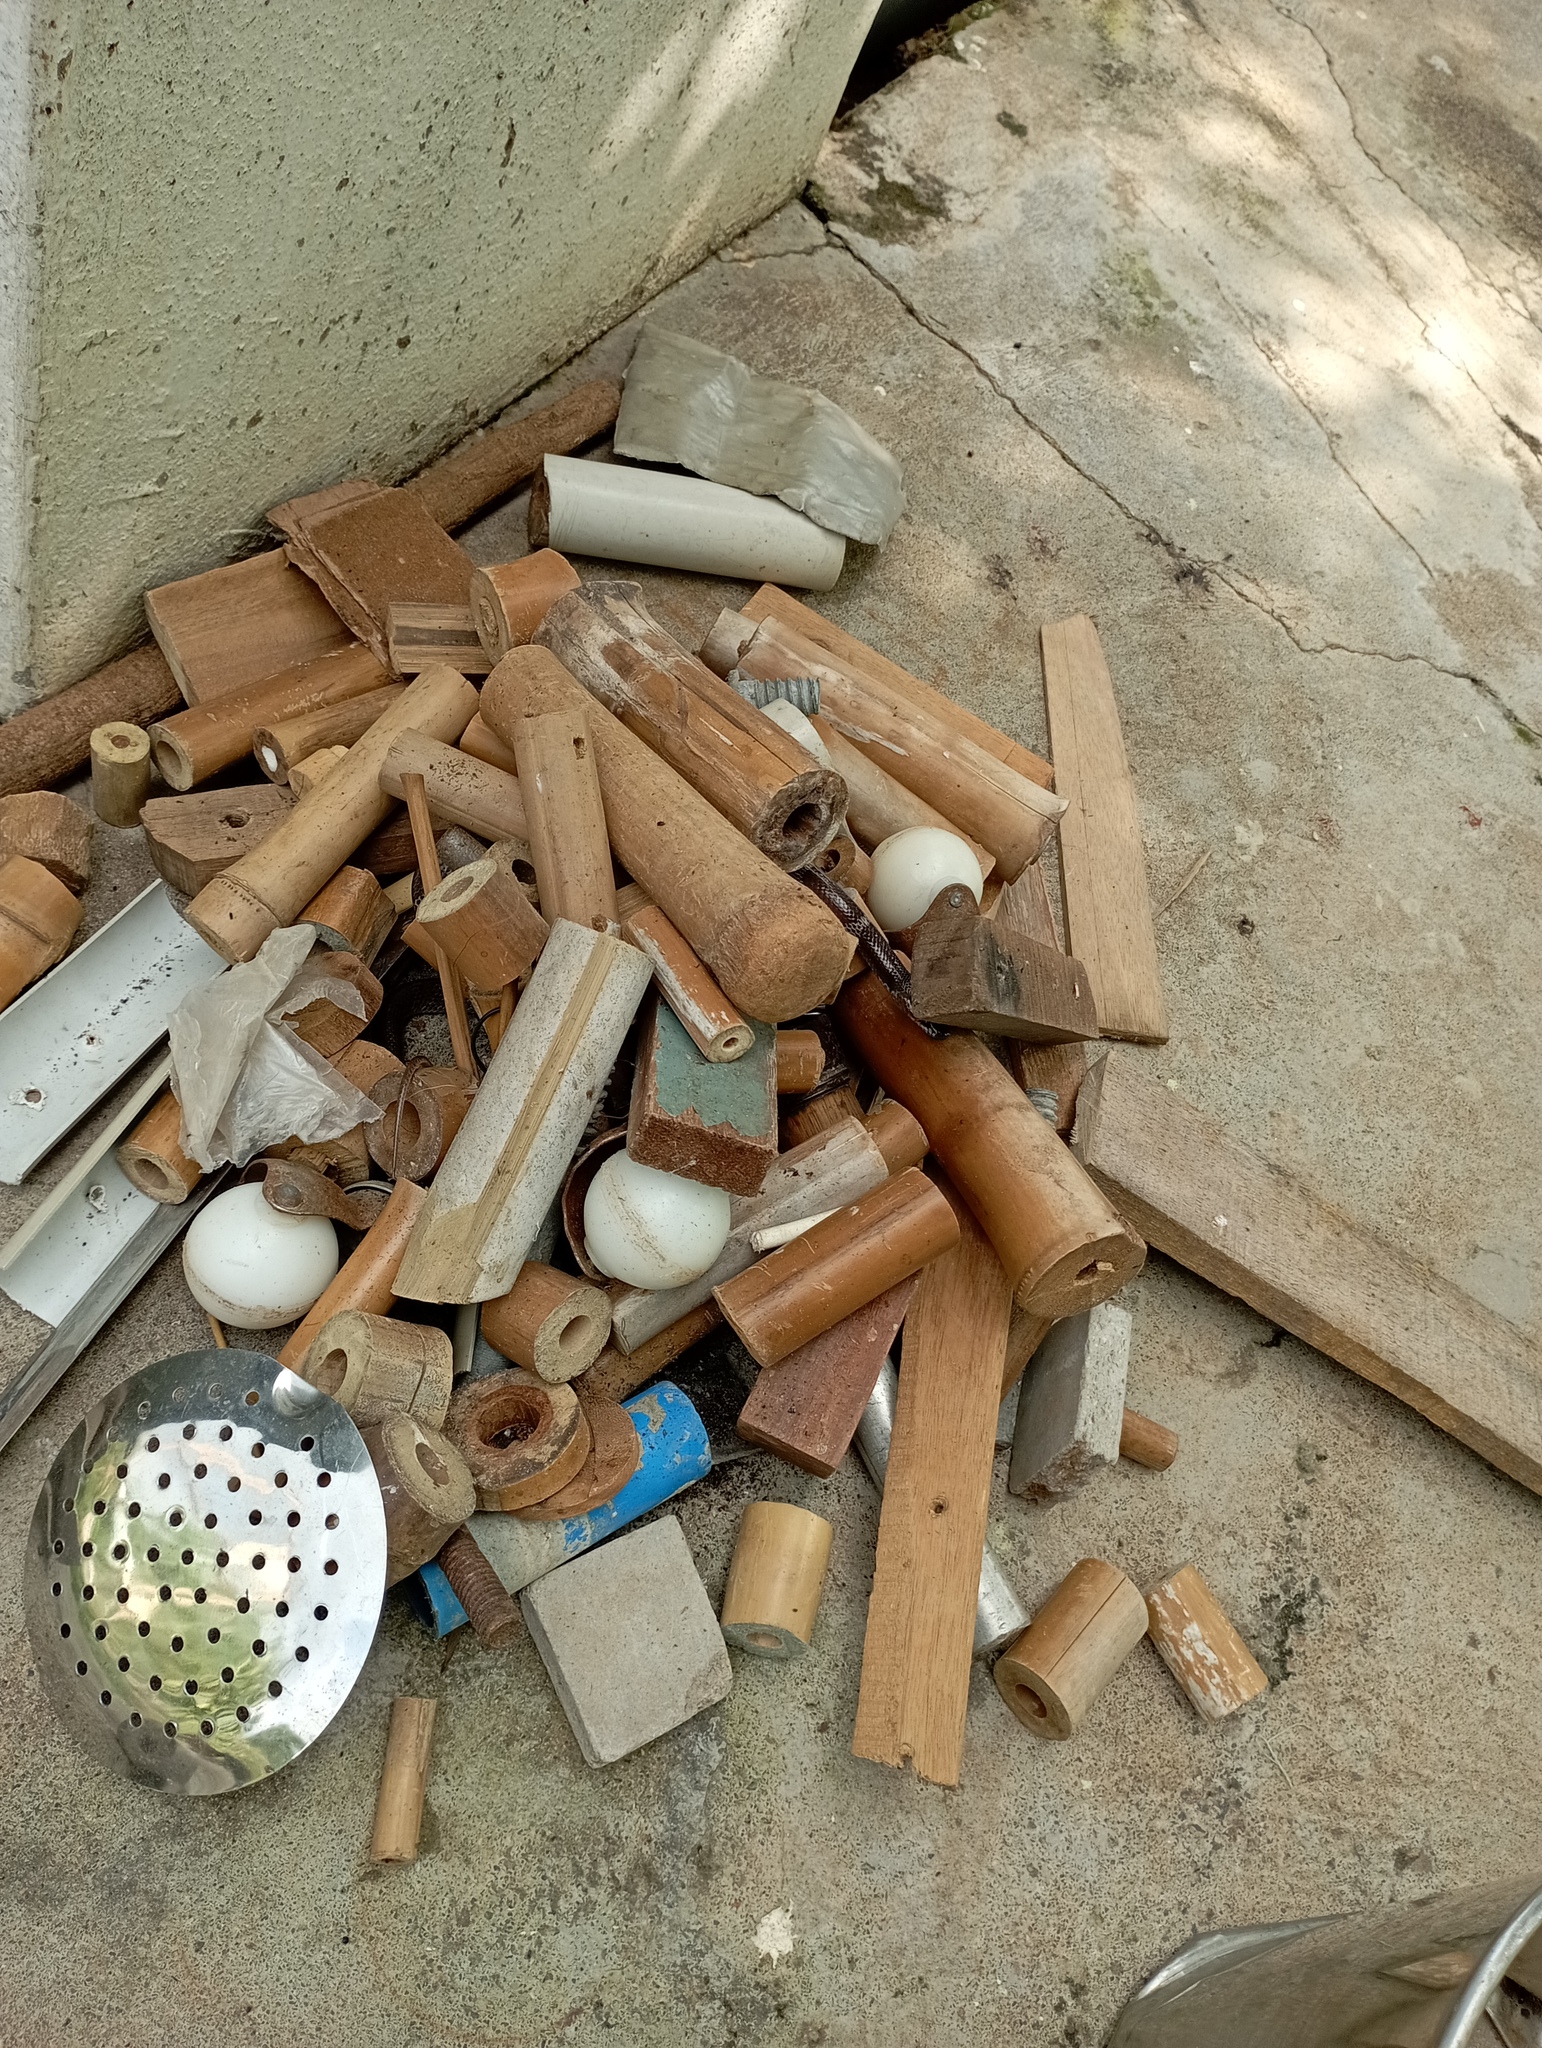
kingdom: Animalia
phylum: Chordata
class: Squamata
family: Colubridae
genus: Lycodon
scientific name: Lycodon aulicus
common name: Common wolf snake
